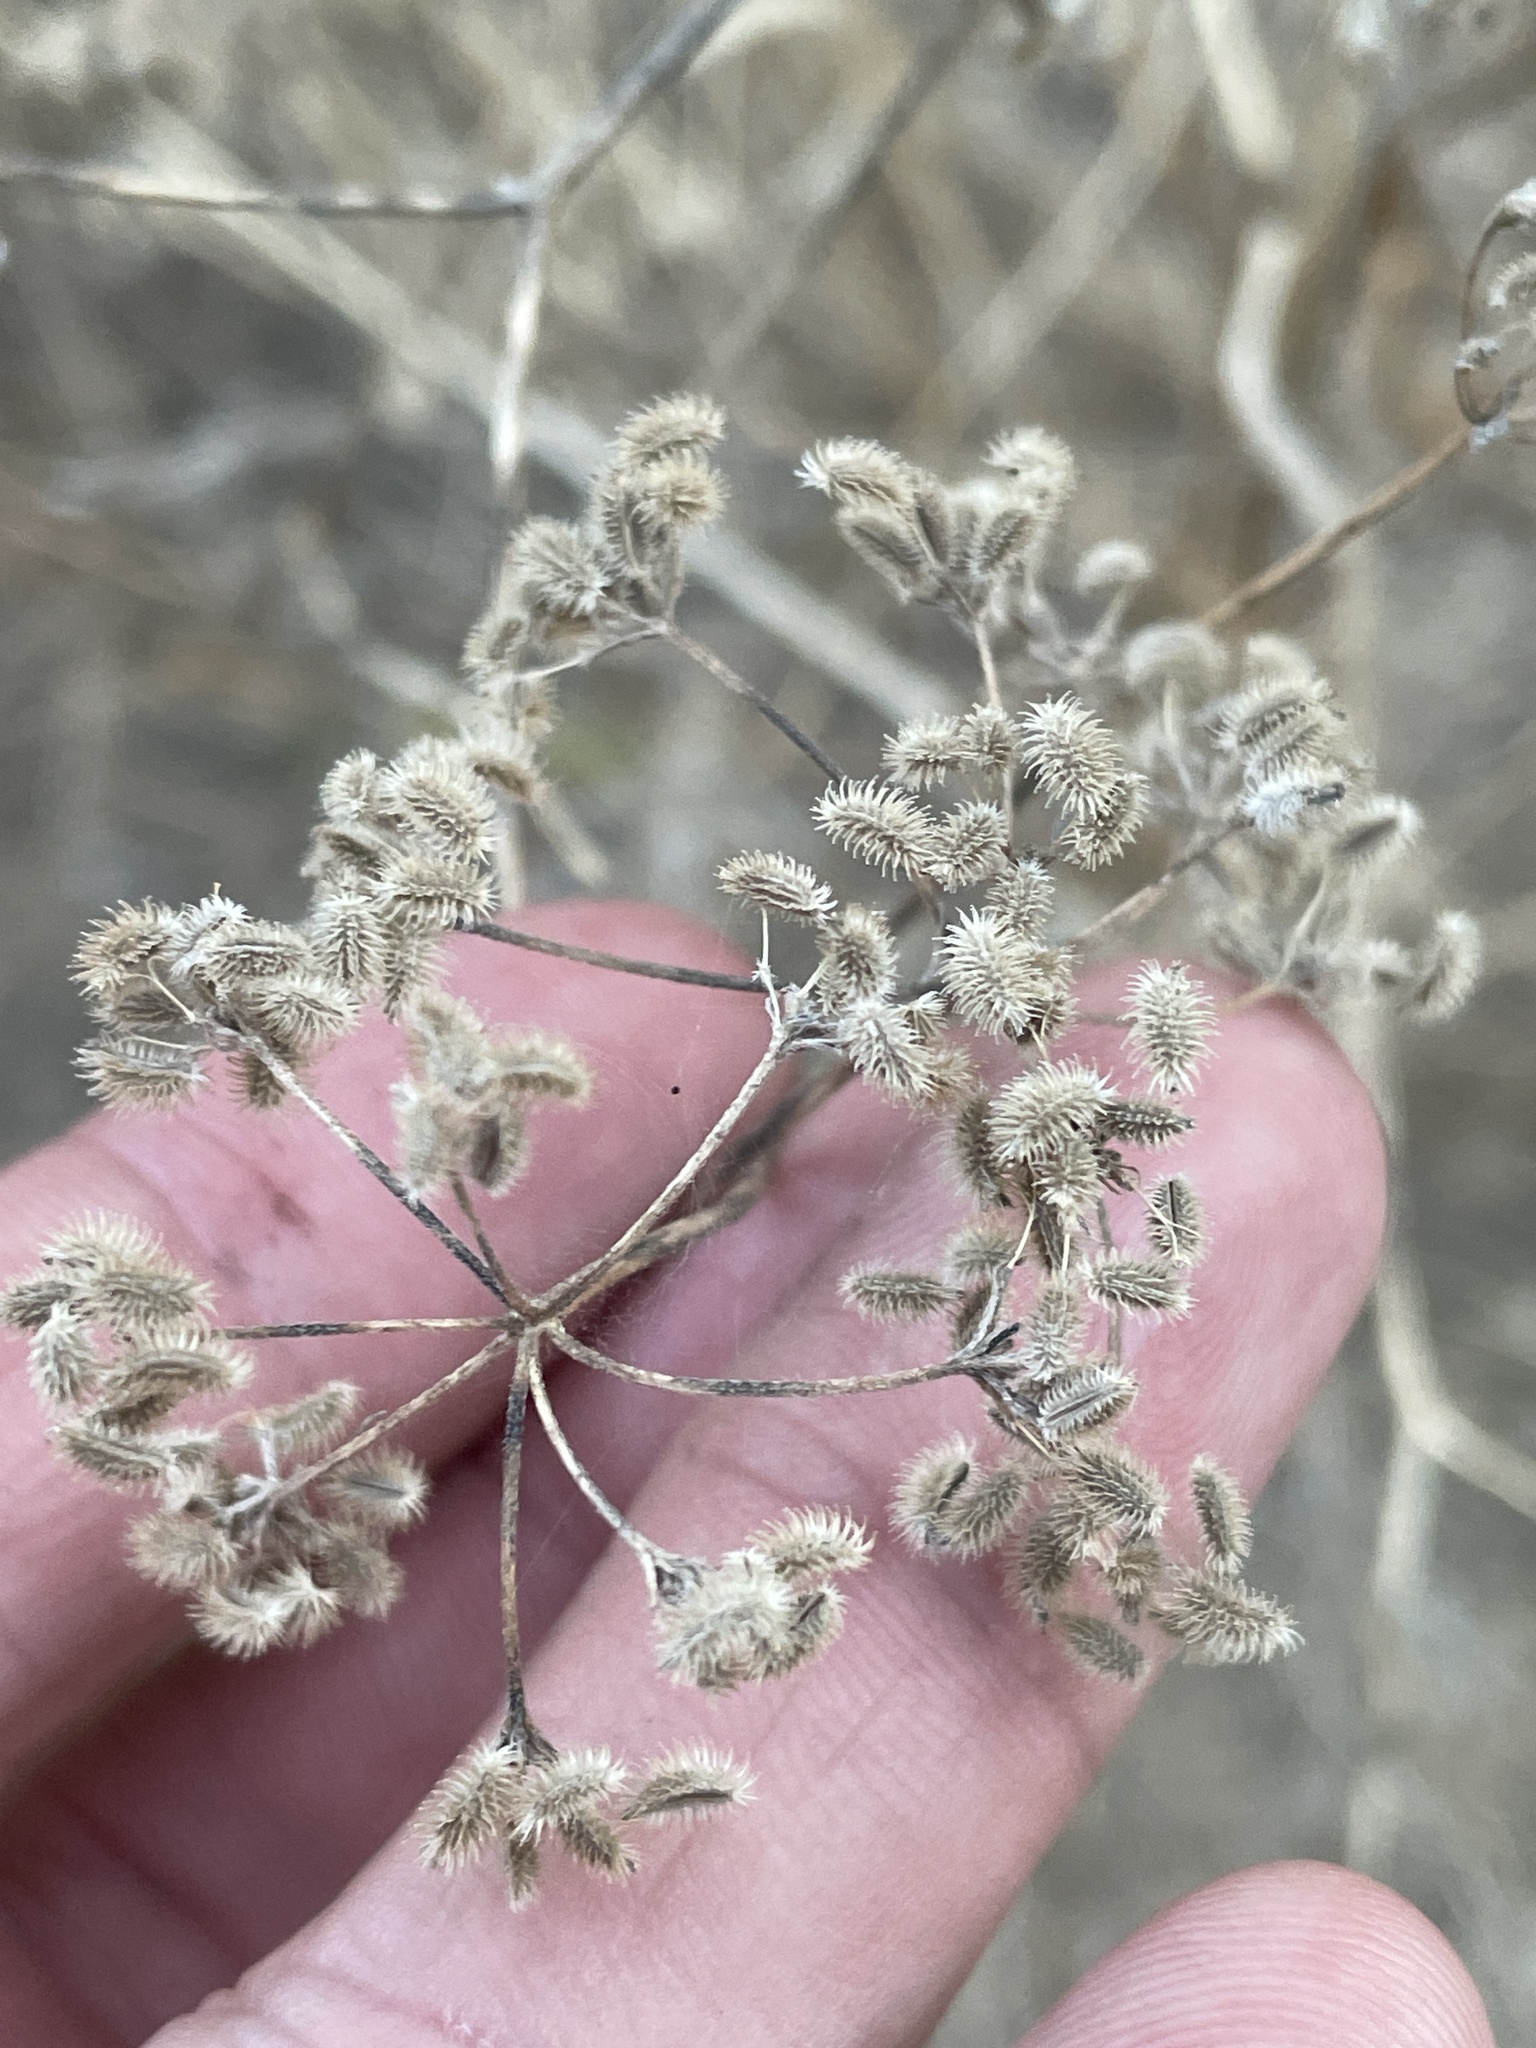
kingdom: Plantae
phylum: Tracheophyta
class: Magnoliopsida
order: Apiales
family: Apiaceae
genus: Torilis
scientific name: Torilis arvensis
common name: Spreading hedge-parsley
